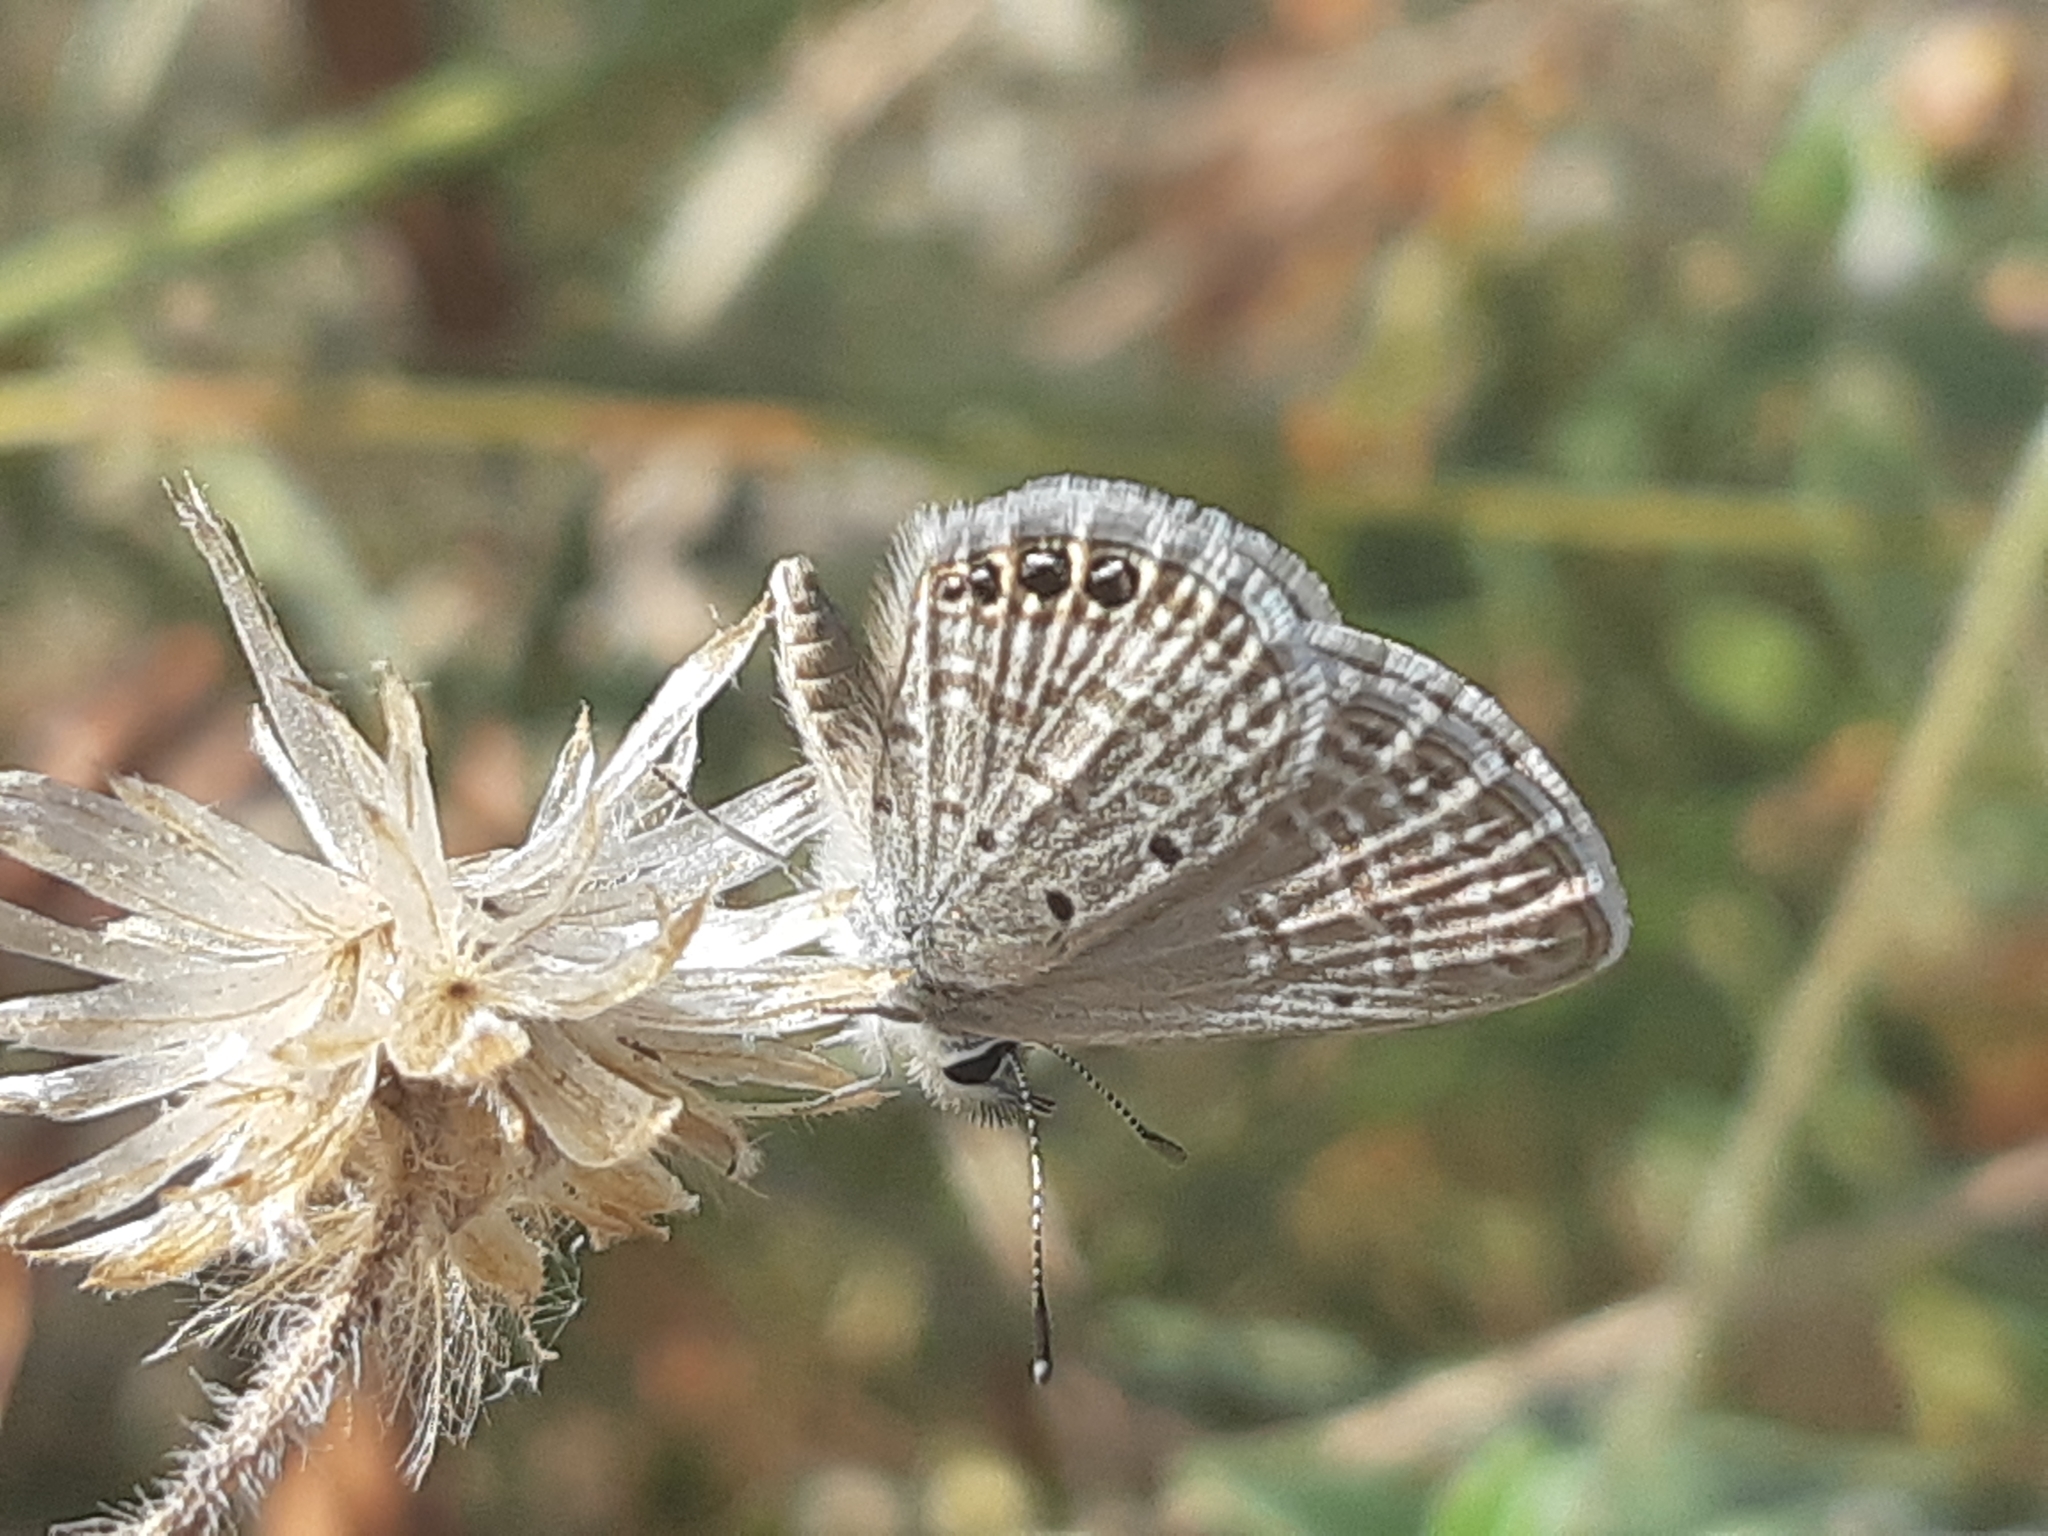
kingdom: Animalia
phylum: Arthropoda
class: Insecta
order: Lepidoptera
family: Lycaenidae
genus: Hemiargus
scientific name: Hemiargus ramon
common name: Ramon blue
